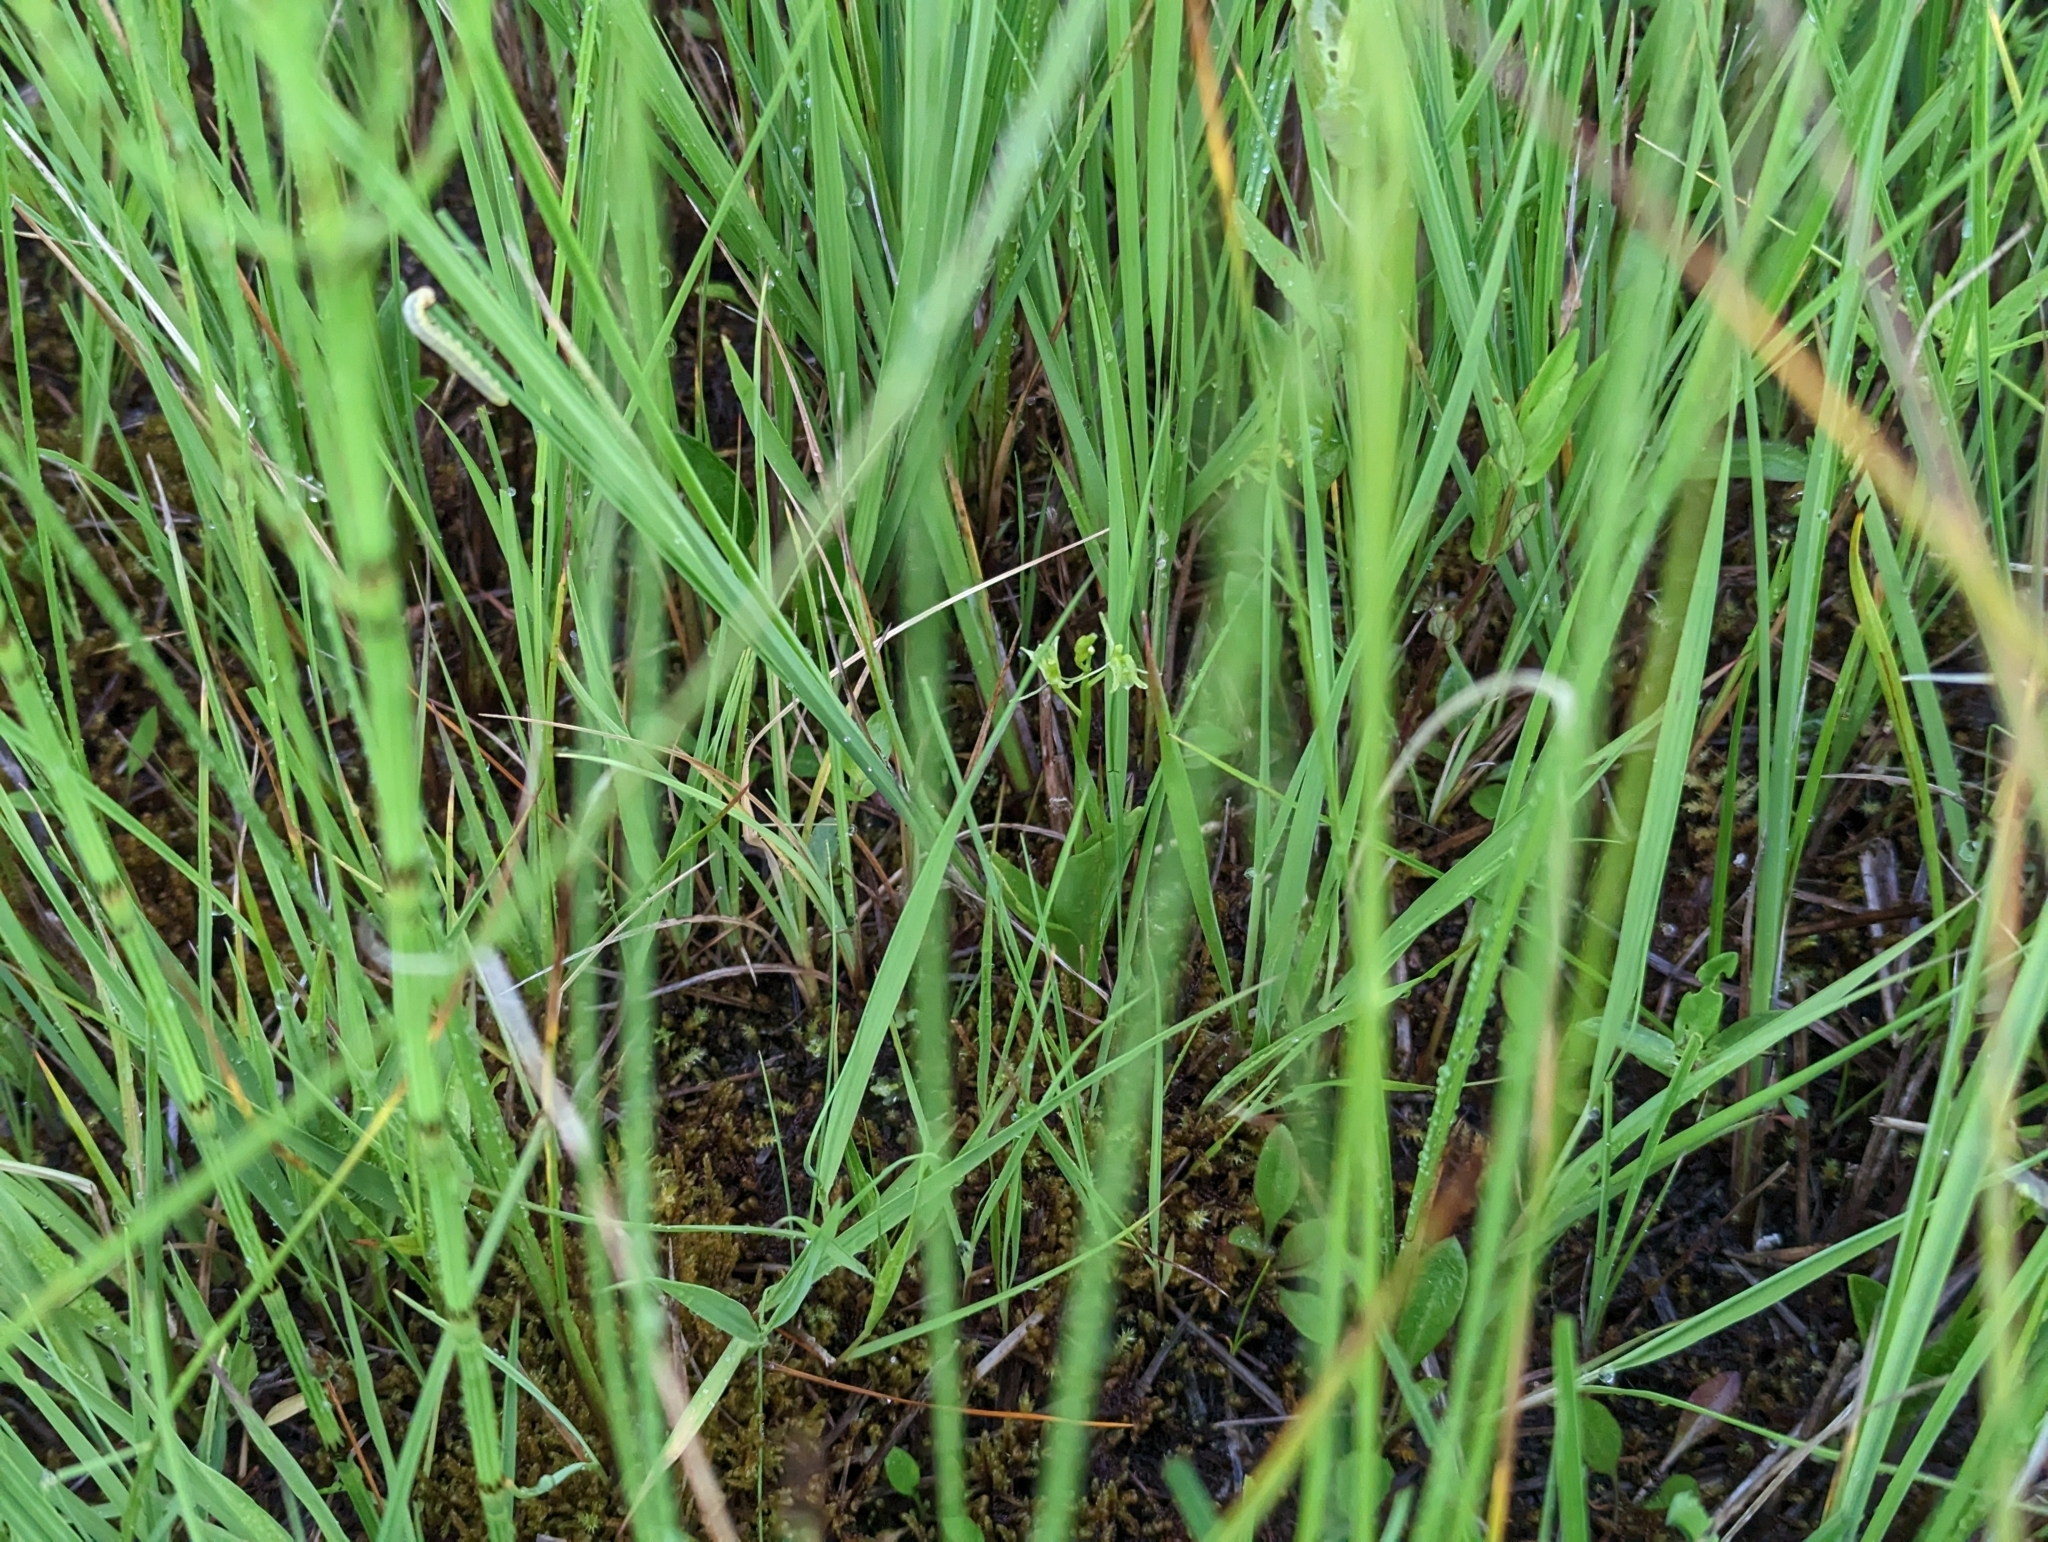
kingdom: Animalia
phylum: Arthropoda
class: Insecta
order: Coleoptera
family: Curculionidae
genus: Liparis
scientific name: Liparis loeselii
